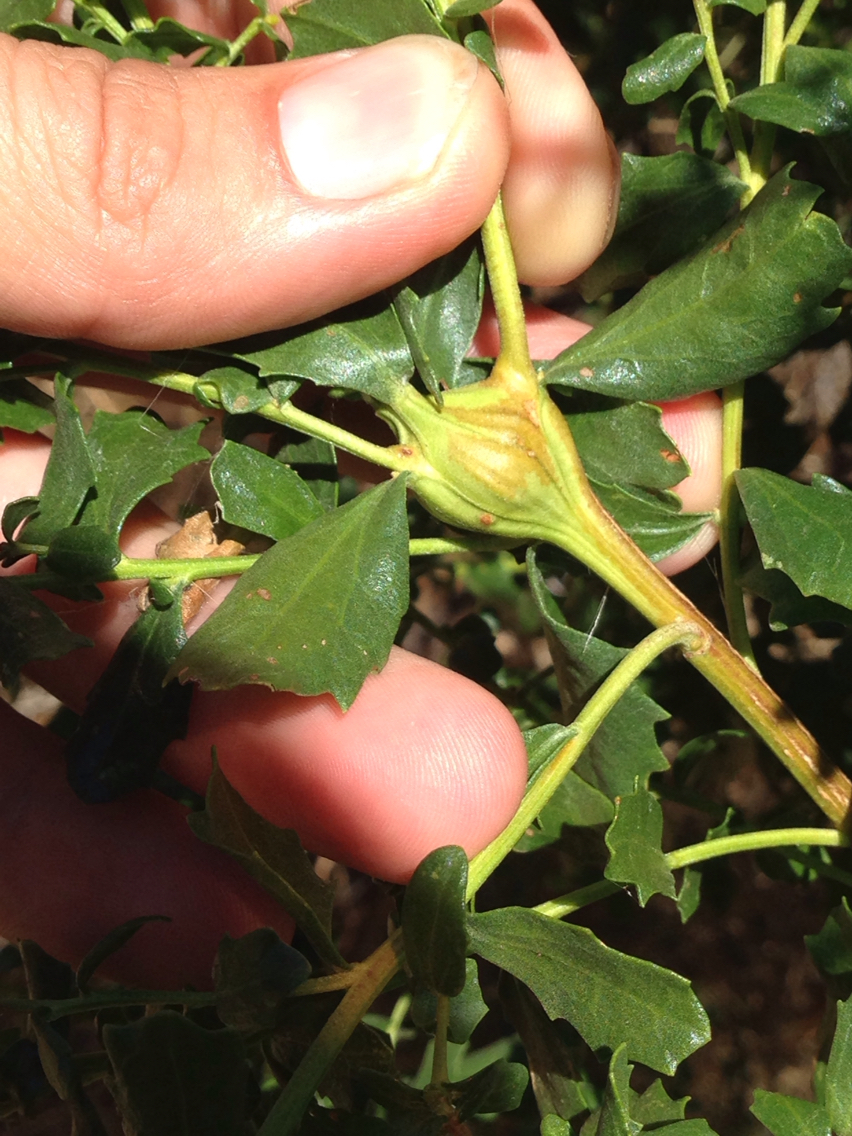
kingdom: Animalia
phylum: Arthropoda
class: Insecta
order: Lepidoptera
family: Gelechiidae
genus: Gnorimoschema
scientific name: Gnorimoschema baccharisella
